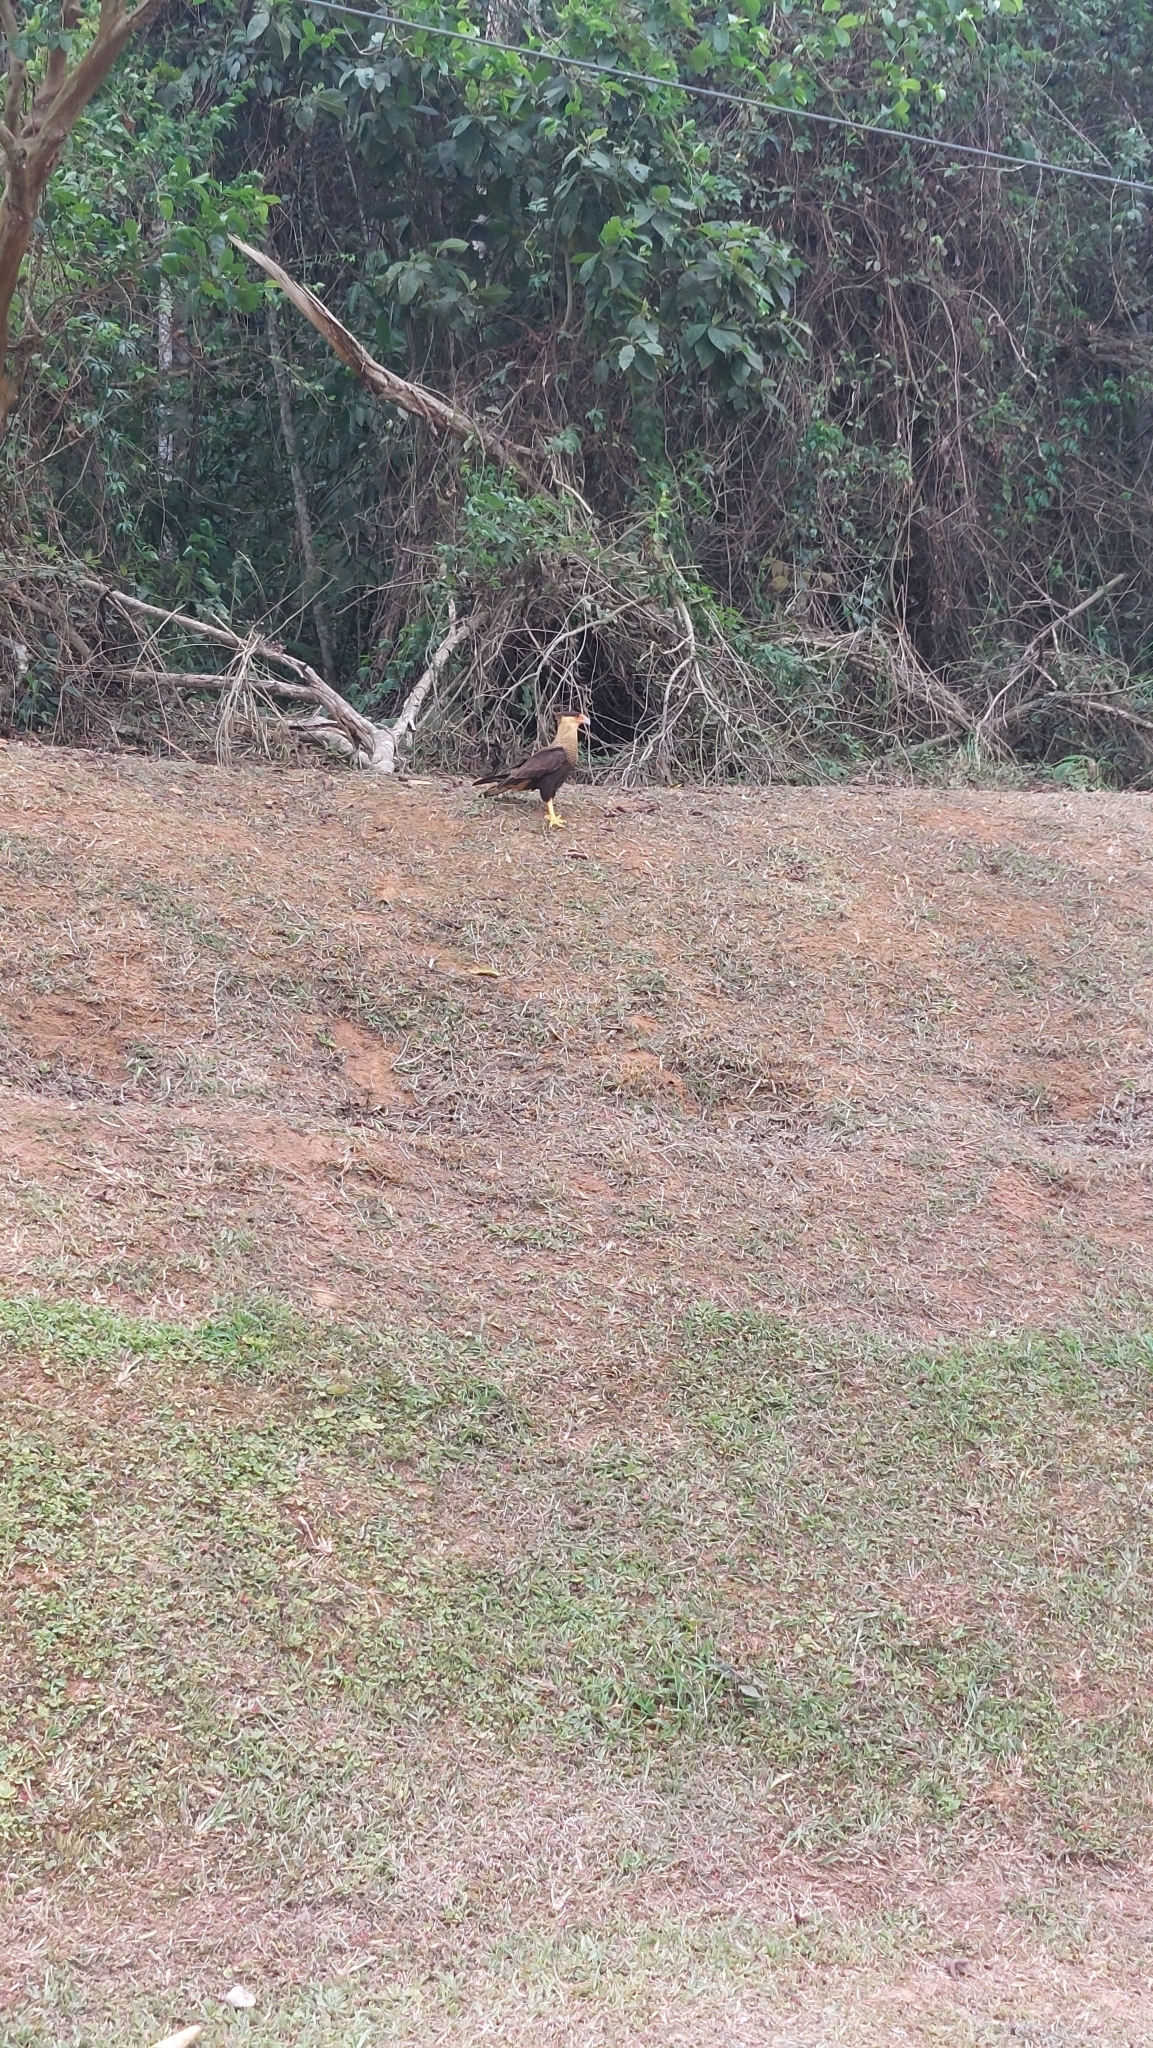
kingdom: Animalia
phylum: Chordata
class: Aves
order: Falconiformes
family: Falconidae
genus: Caracara
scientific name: Caracara plancus
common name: Southern caracara
